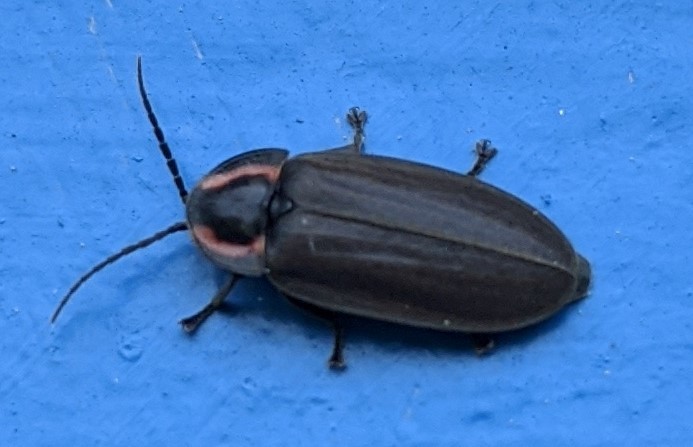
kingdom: Animalia
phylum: Arthropoda
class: Insecta
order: Coleoptera
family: Lampyridae
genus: Photinus
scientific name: Photinus corrusca
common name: Winter firefly
